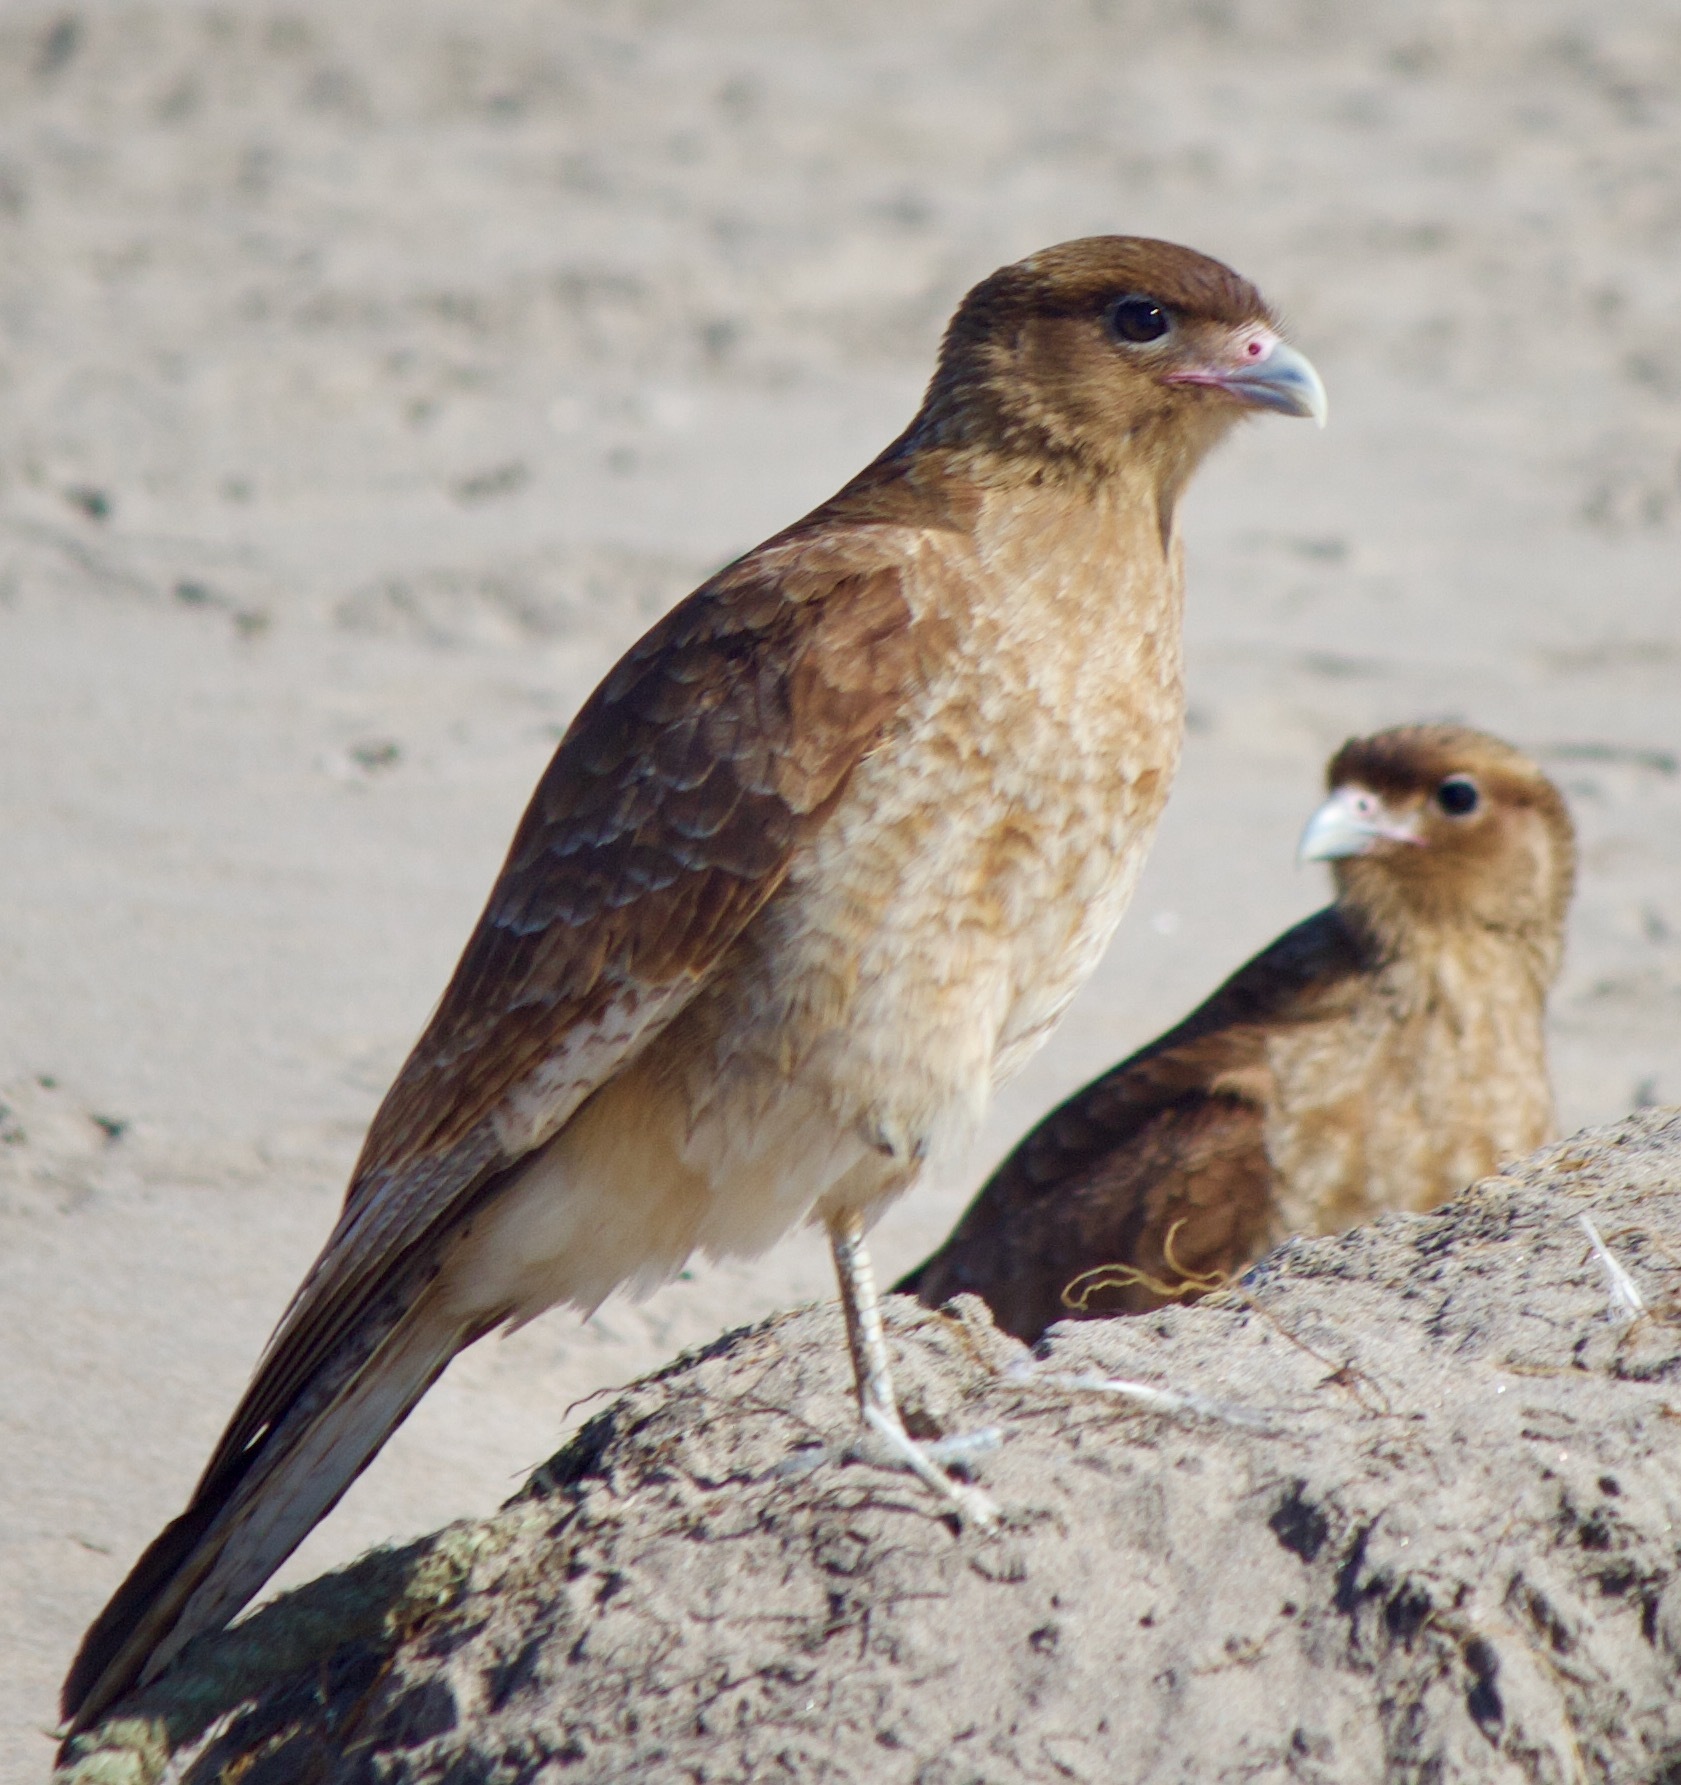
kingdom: Animalia
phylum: Chordata
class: Aves
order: Falconiformes
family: Falconidae
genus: Daptrius
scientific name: Daptrius
